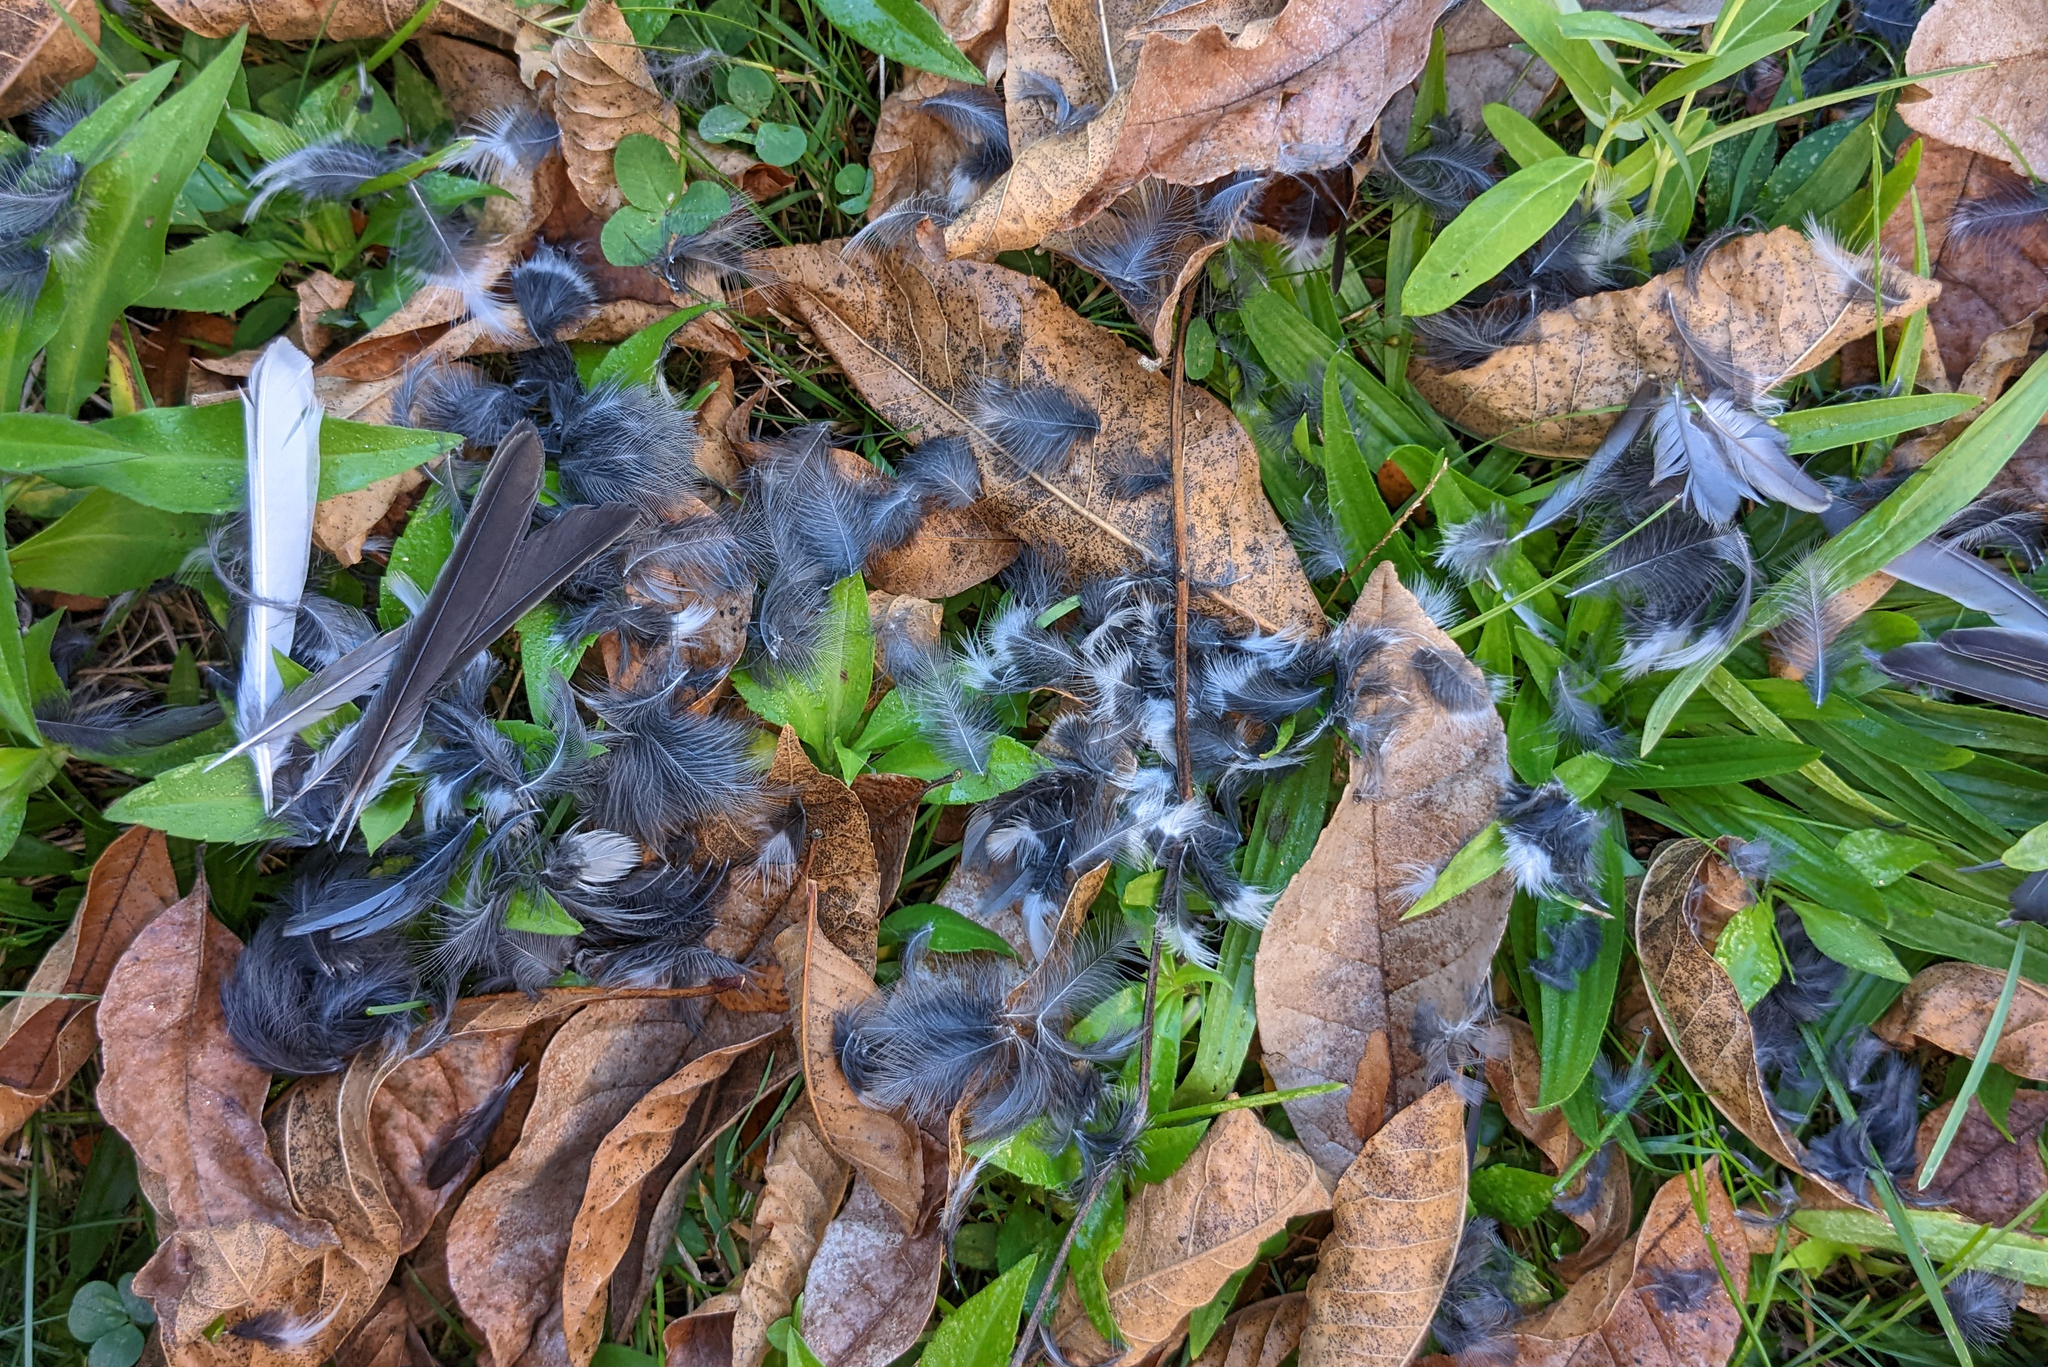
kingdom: Animalia
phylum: Chordata
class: Aves
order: Passeriformes
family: Passerellidae
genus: Junco
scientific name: Junco hyemalis
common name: Dark-eyed junco
